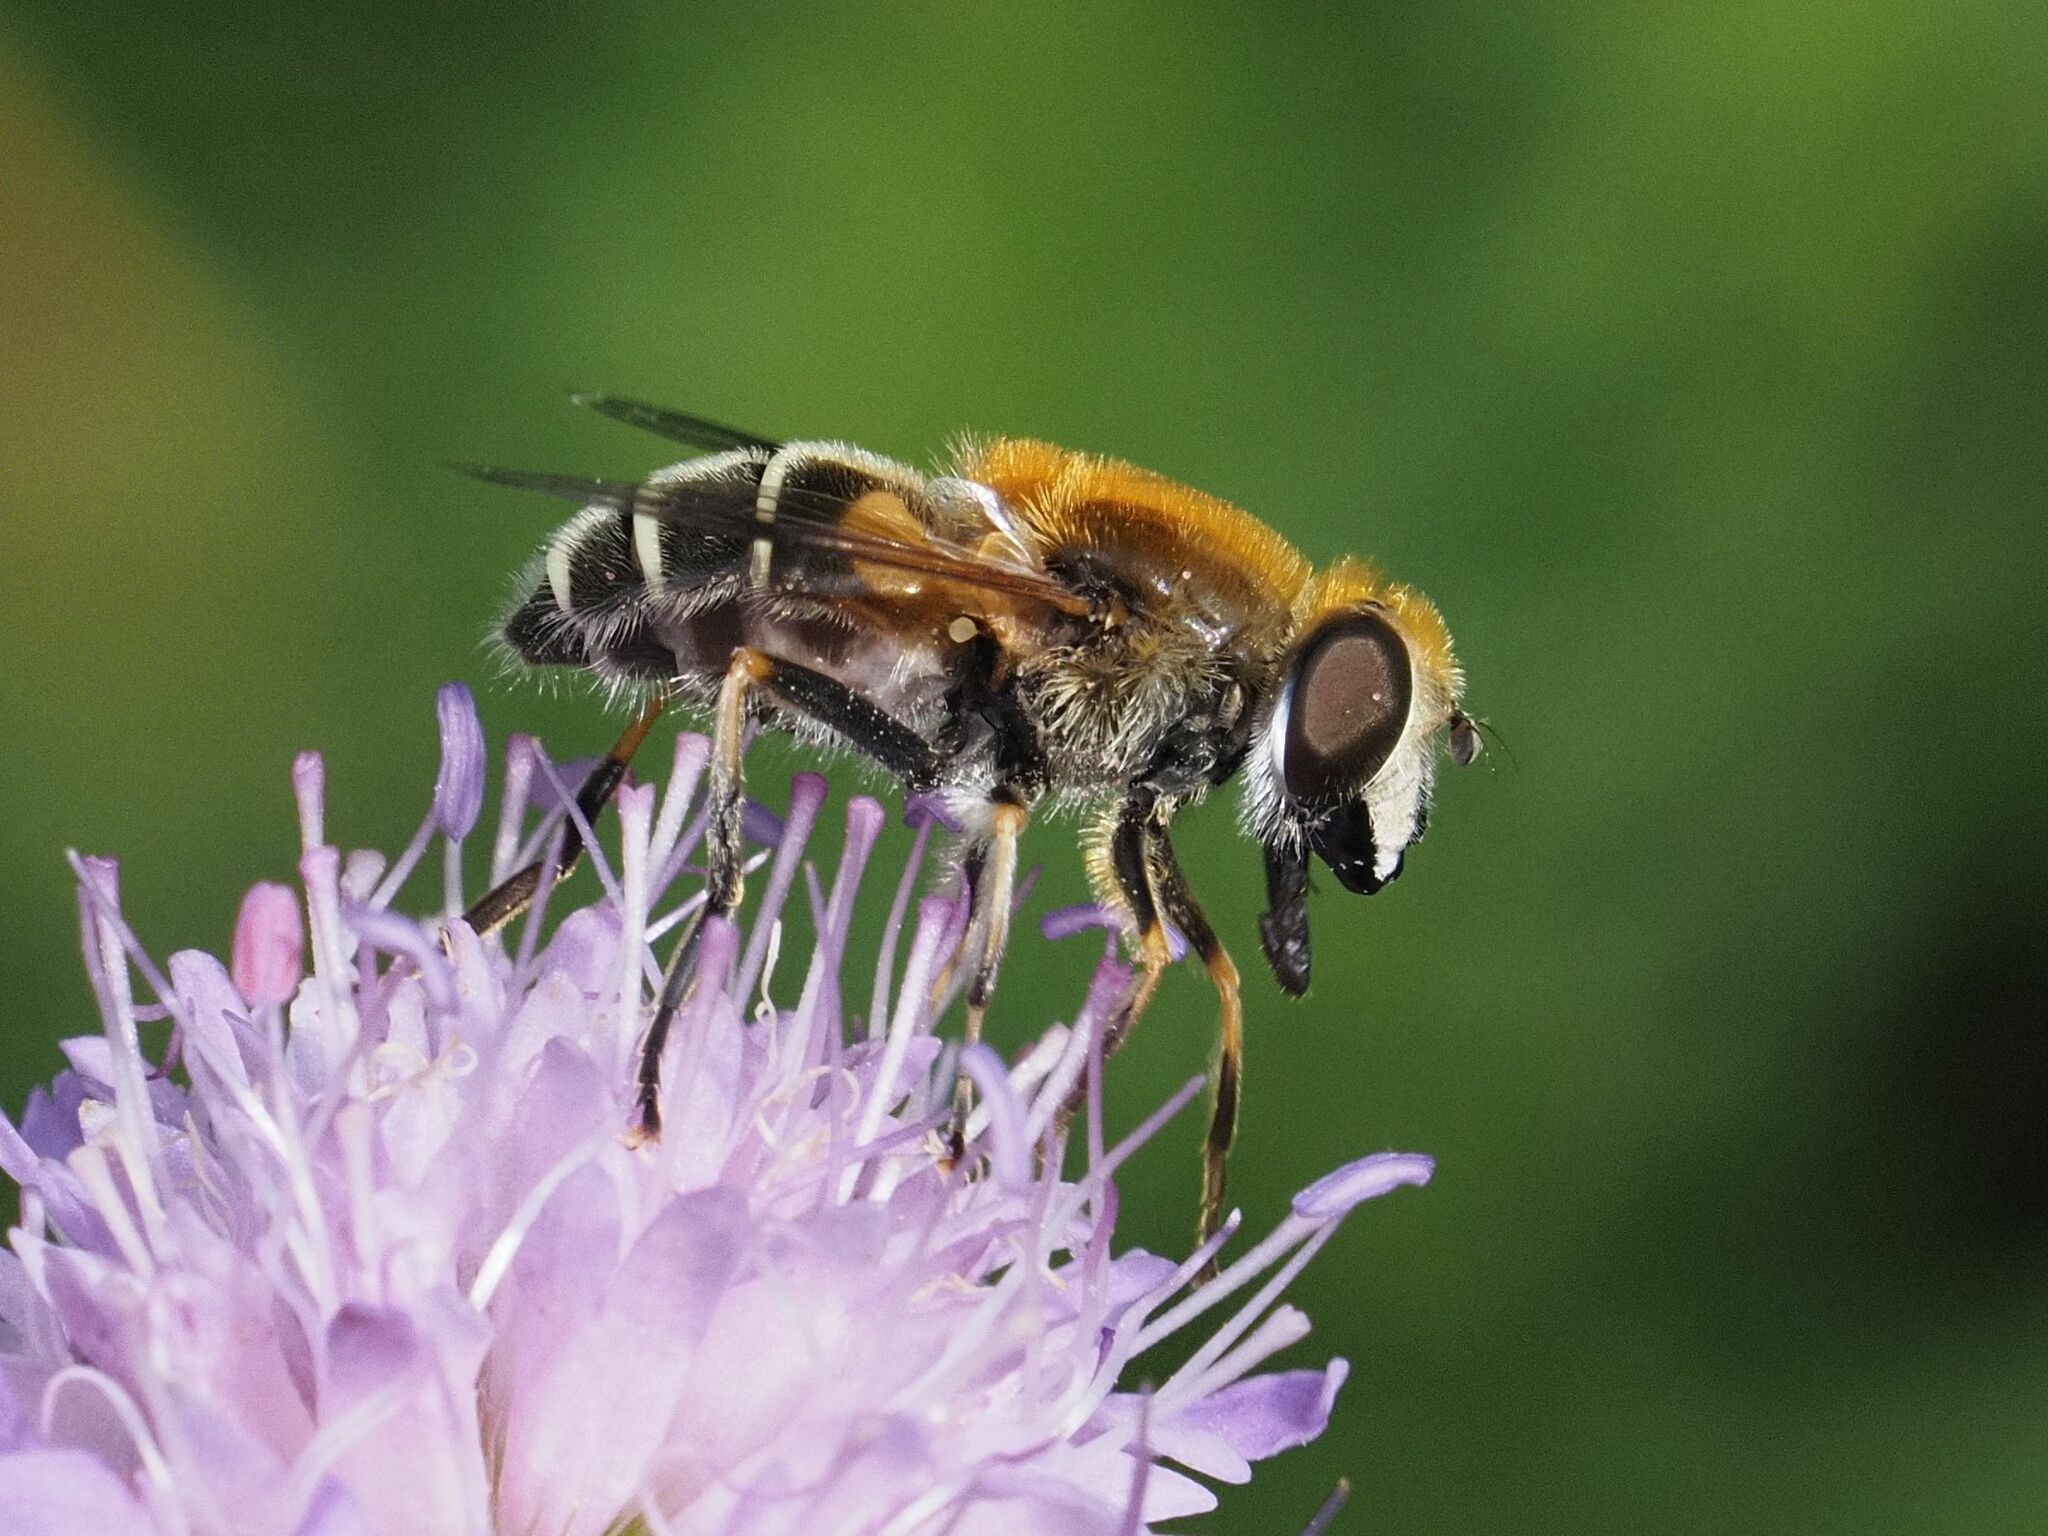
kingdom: Animalia
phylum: Arthropoda
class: Insecta
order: Diptera
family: Syrphidae
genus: Eristalis
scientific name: Eristalis jugorum
